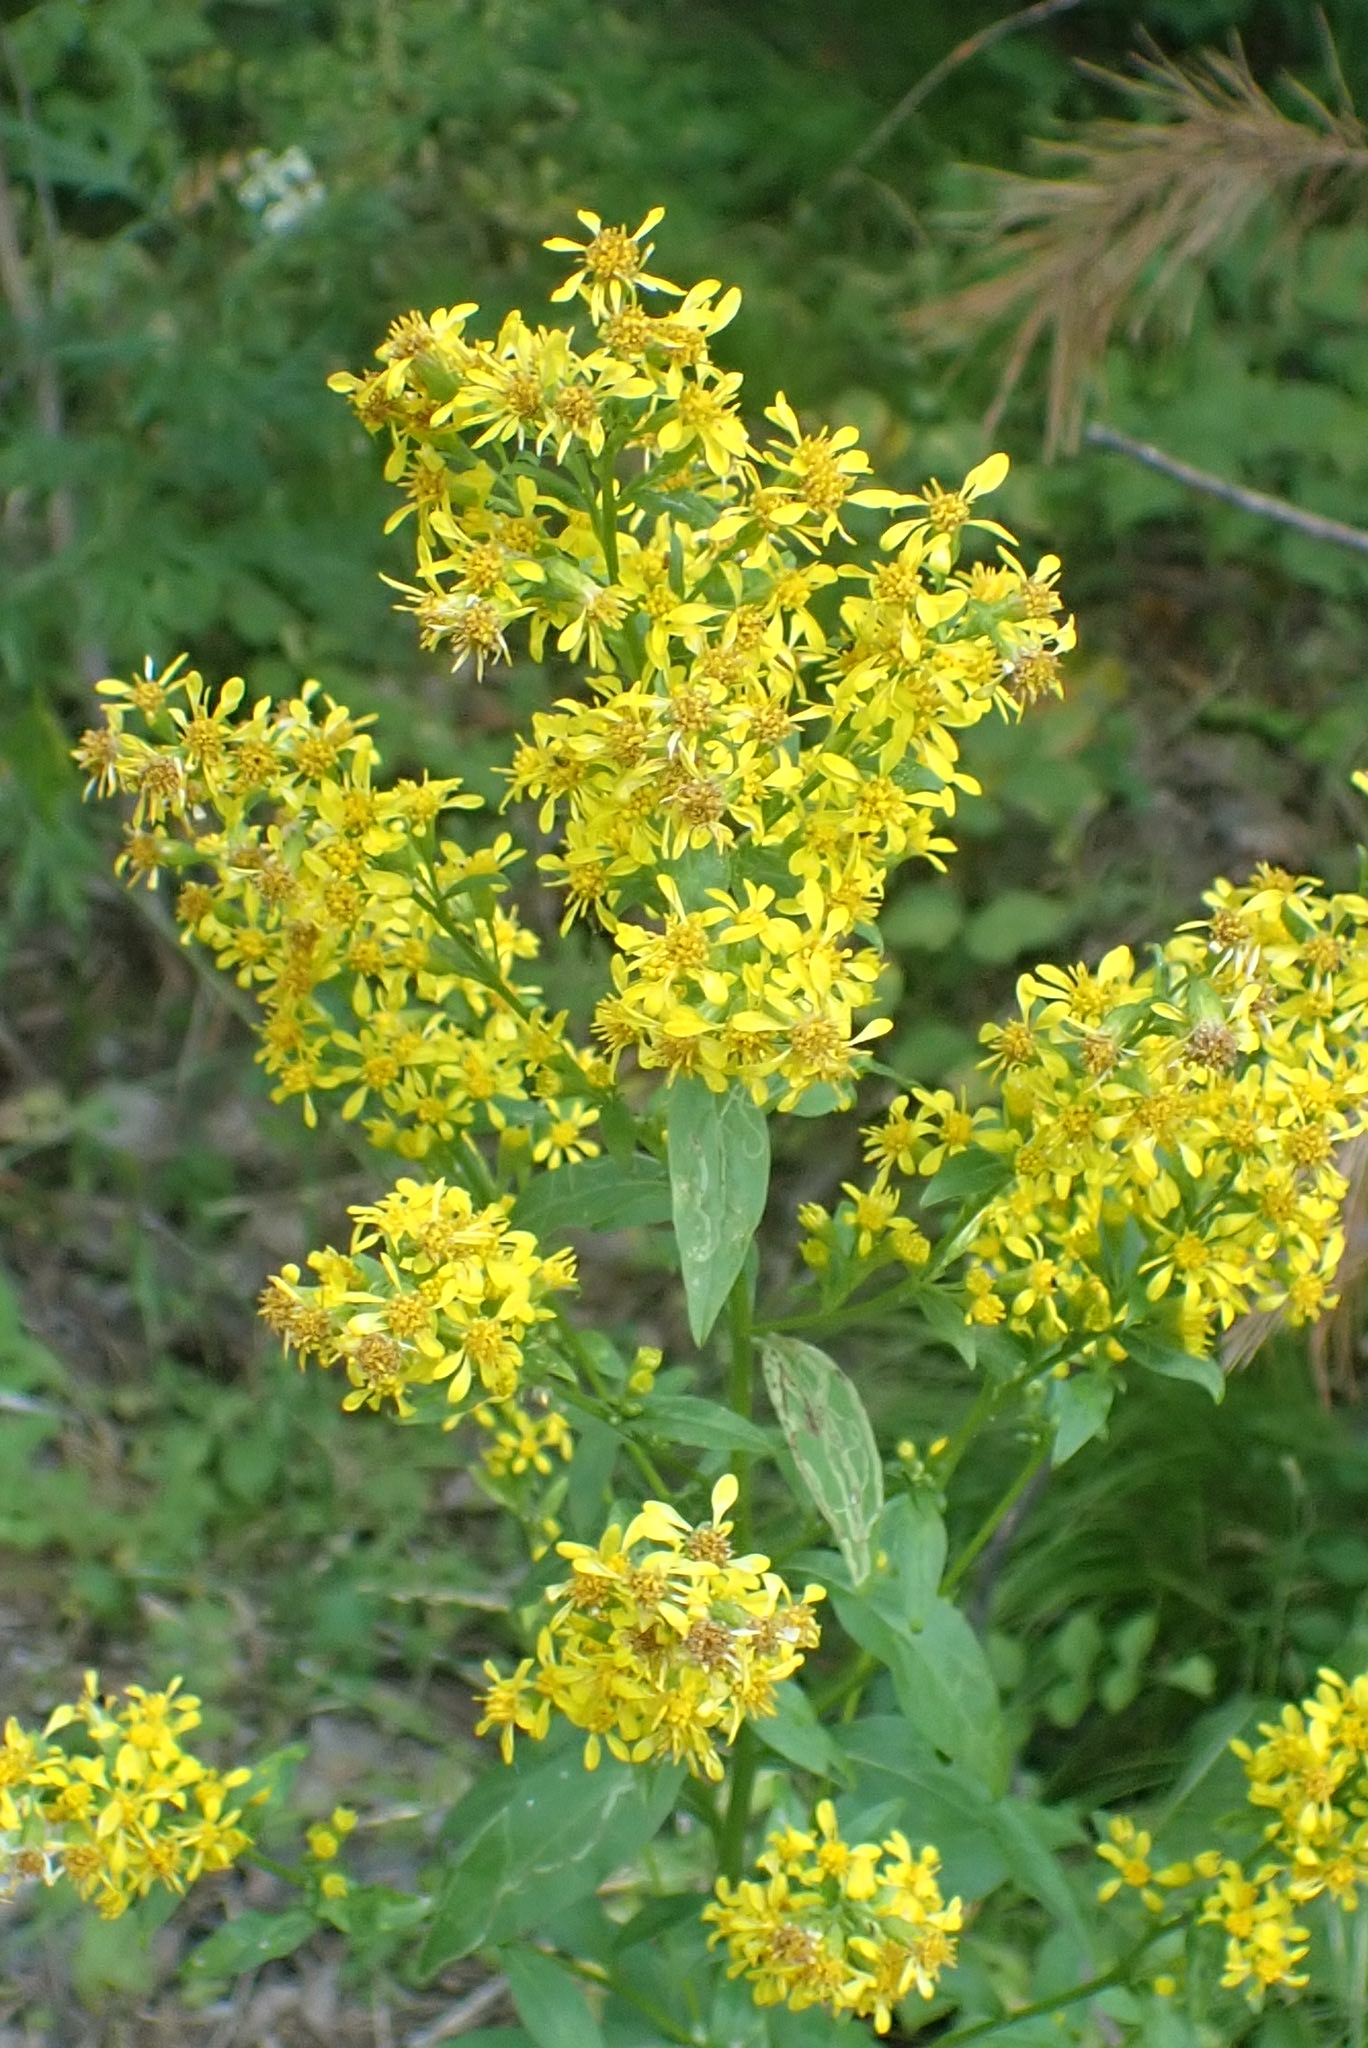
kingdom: Plantae
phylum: Tracheophyta
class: Magnoliopsida
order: Asterales
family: Asteraceae
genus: Solidago
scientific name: Solidago virgaurea
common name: Goldenrod
